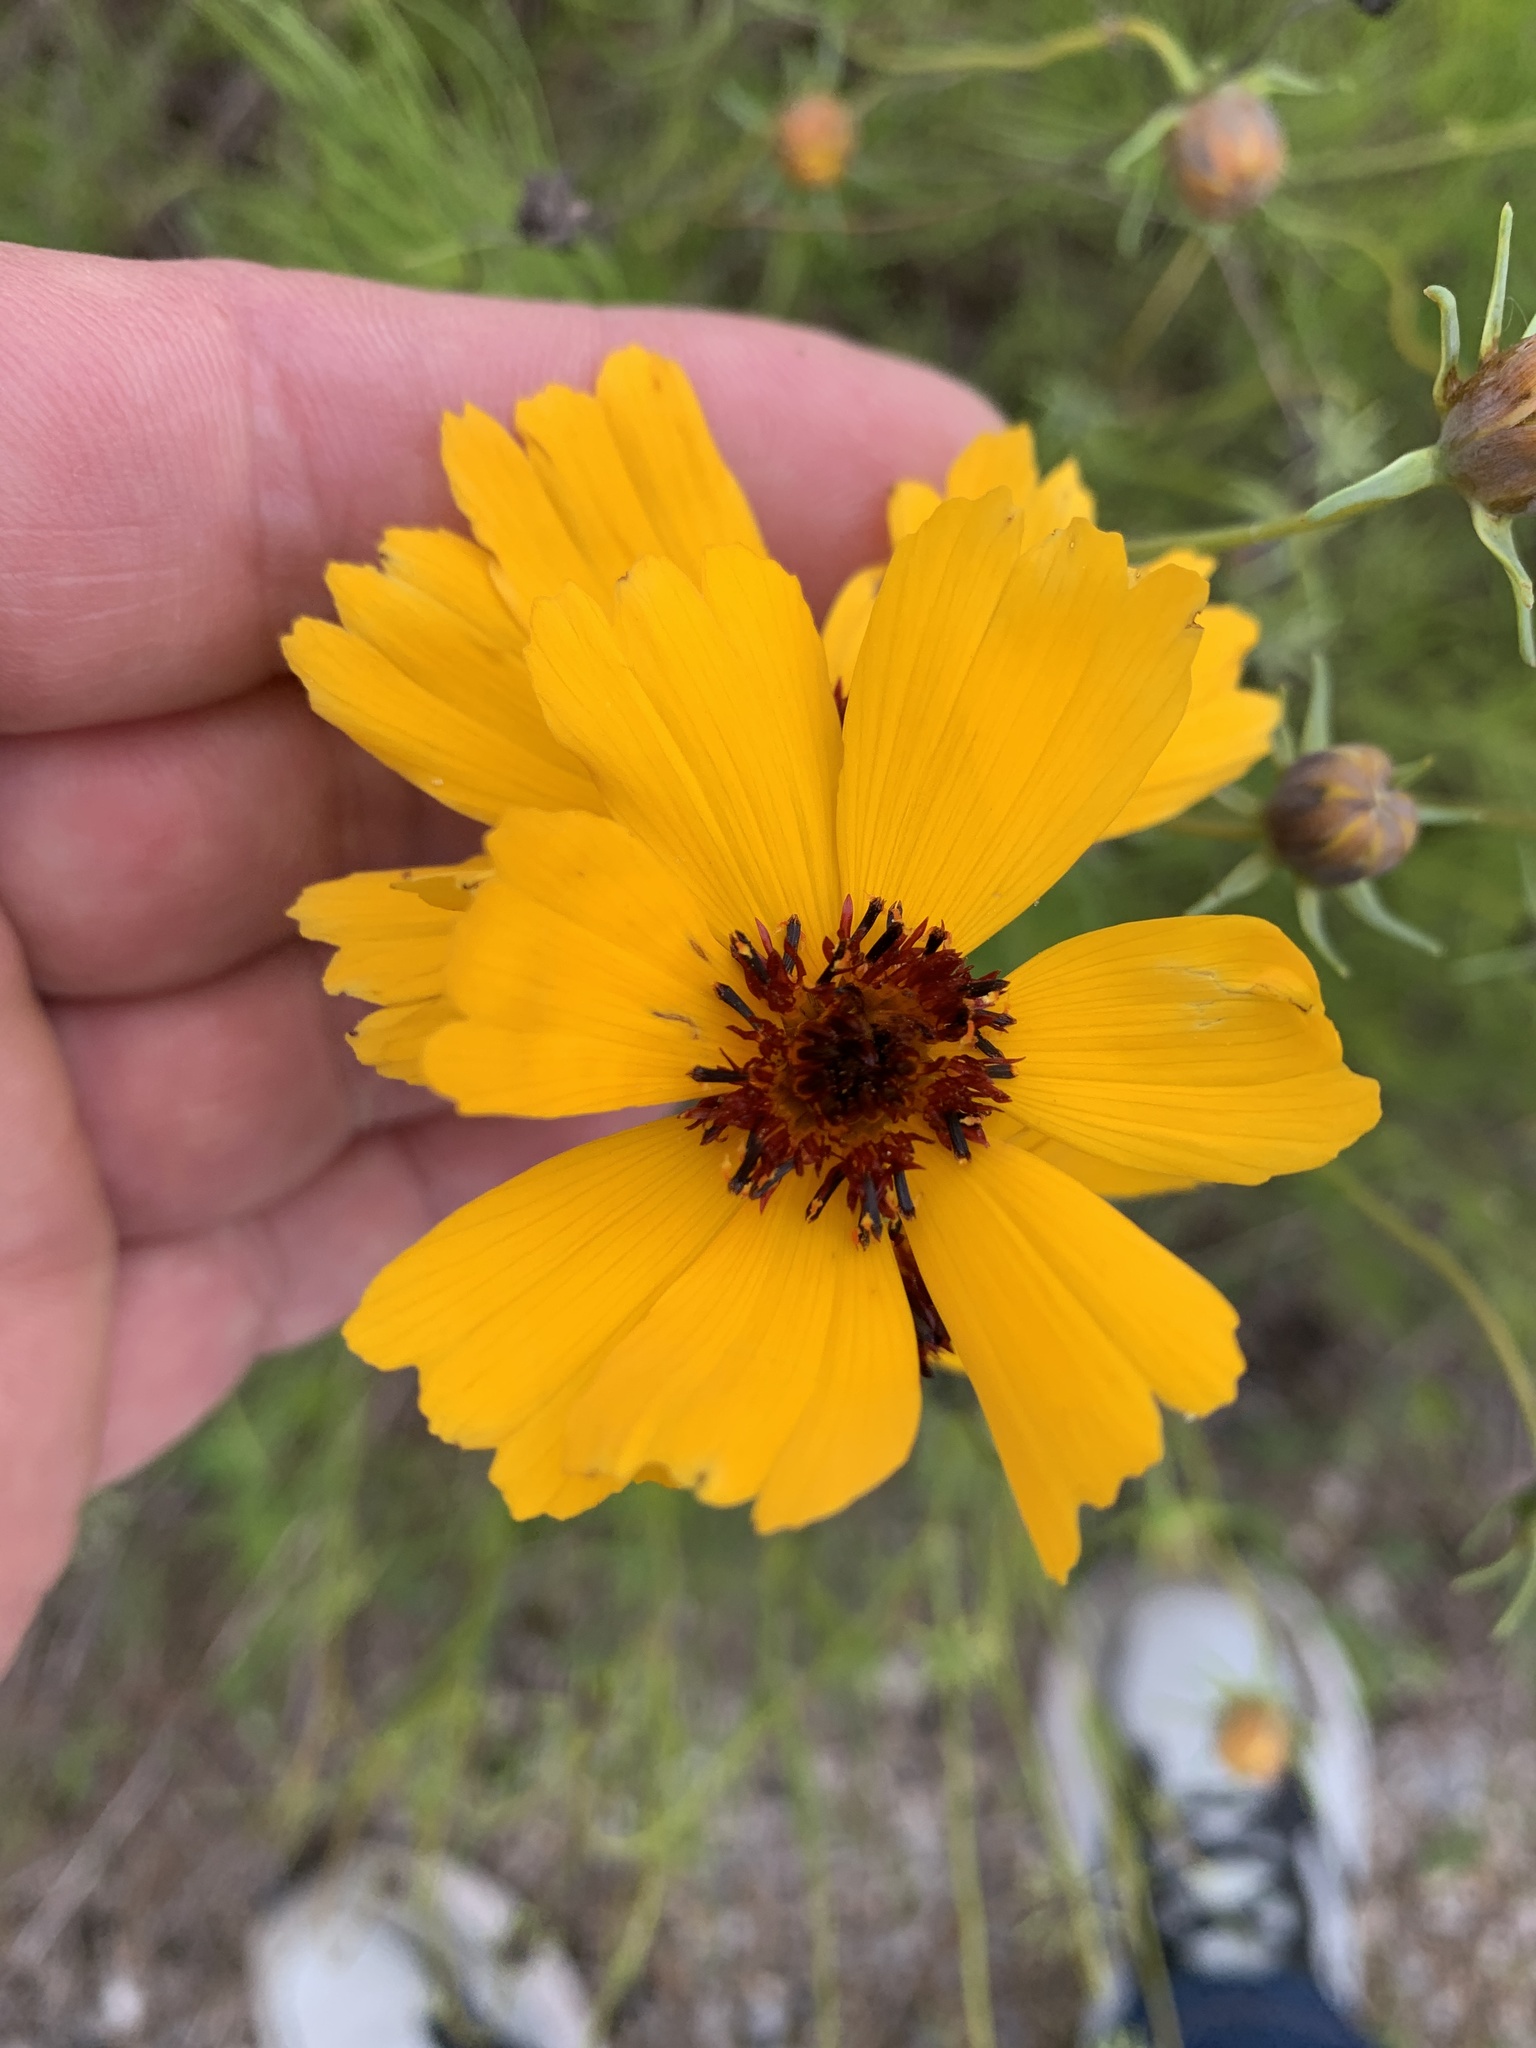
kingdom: Plantae
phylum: Tracheophyta
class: Magnoliopsida
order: Asterales
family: Asteraceae
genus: Thelesperma
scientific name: Thelesperma filifolium
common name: Stiff greenthread
